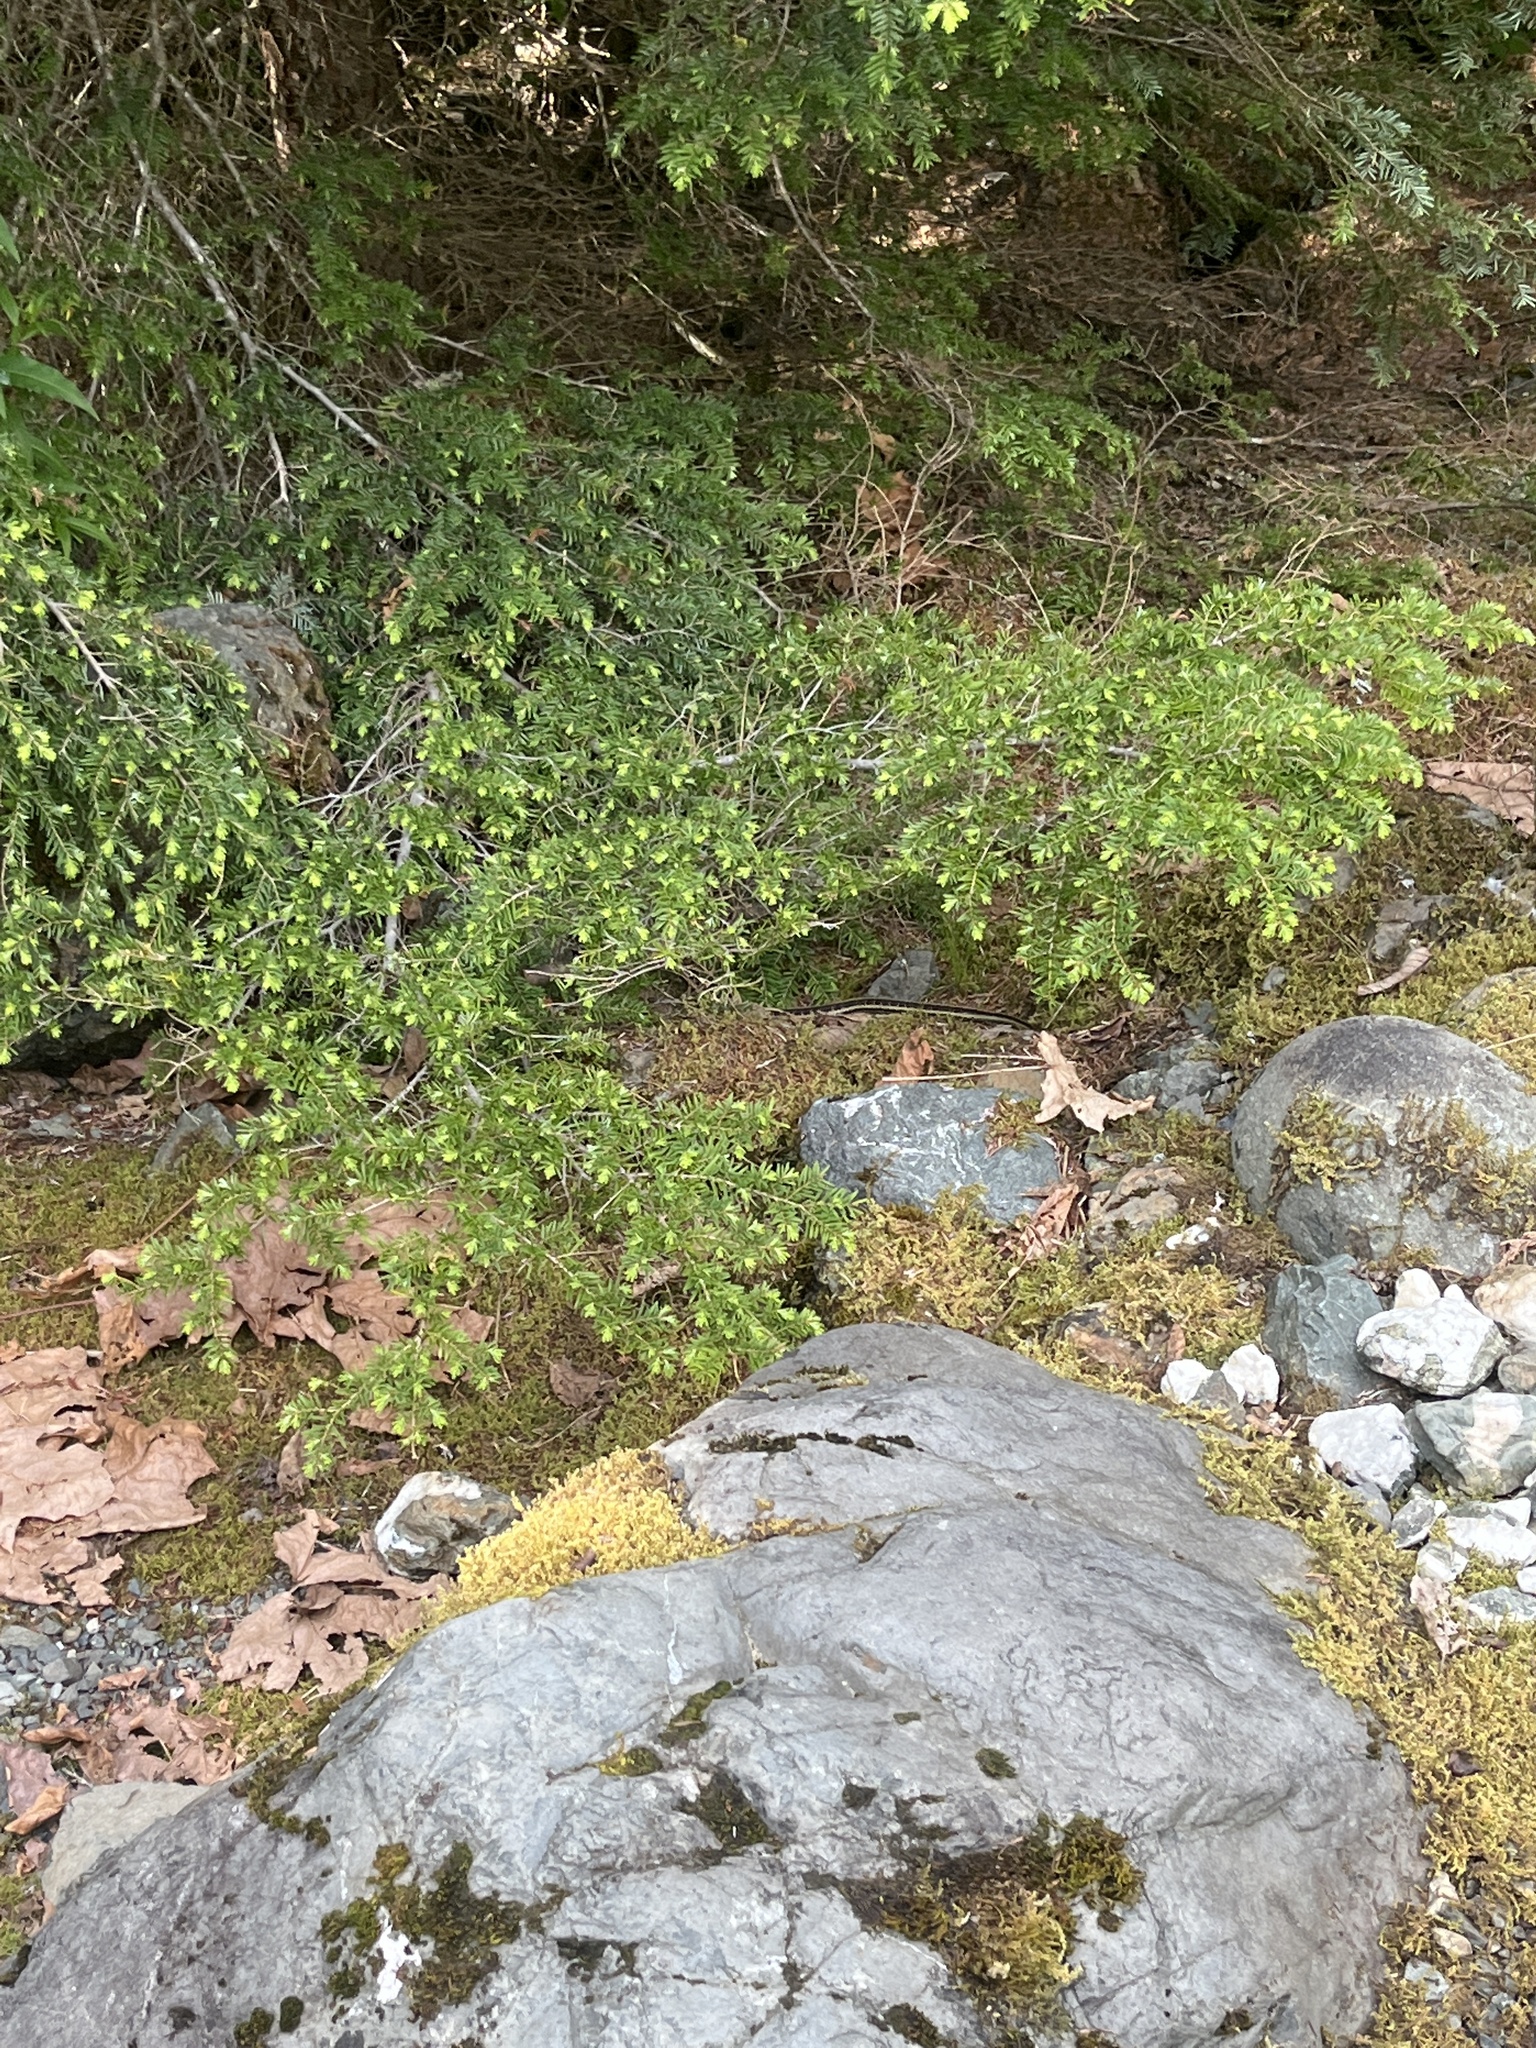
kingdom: Animalia
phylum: Chordata
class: Squamata
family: Colubridae
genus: Thamnophis
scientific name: Thamnophis sirtalis
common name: Common garter snake
